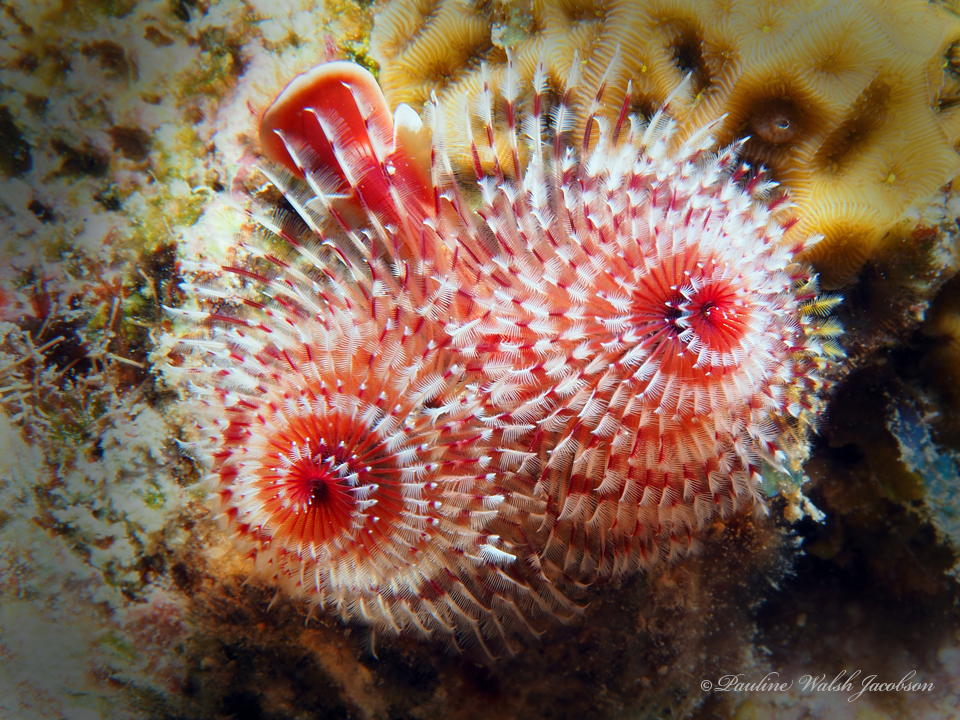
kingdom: Animalia
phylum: Annelida
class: Polychaeta
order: Sabellida
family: Serpulidae
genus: Spirobranchus
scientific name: Spirobranchus giganteus
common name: Christmas tree worm
